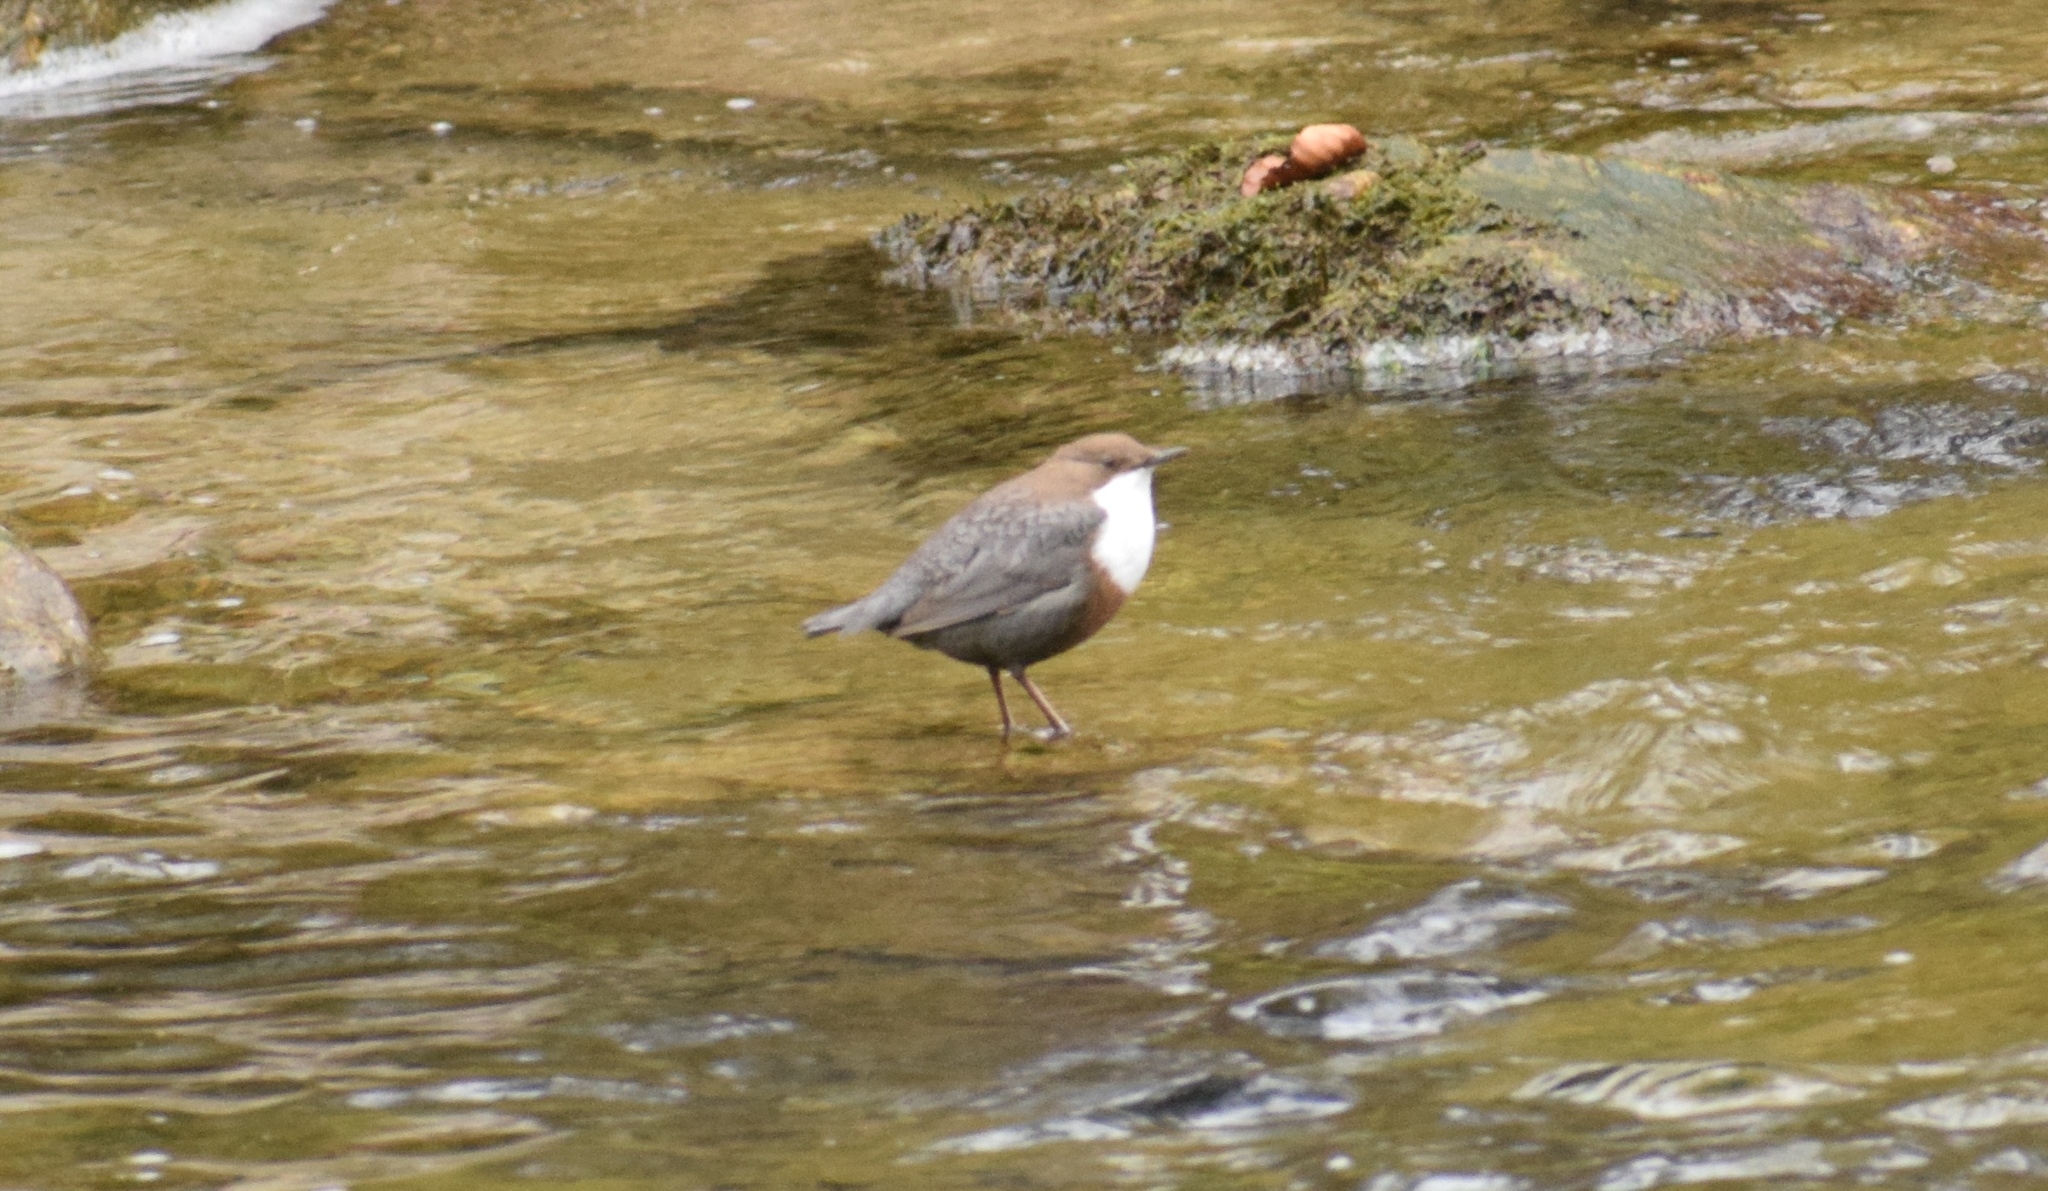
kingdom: Animalia
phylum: Chordata
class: Aves
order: Passeriformes
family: Cinclidae
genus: Cinclus
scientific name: Cinclus cinclus
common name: White-throated dipper
